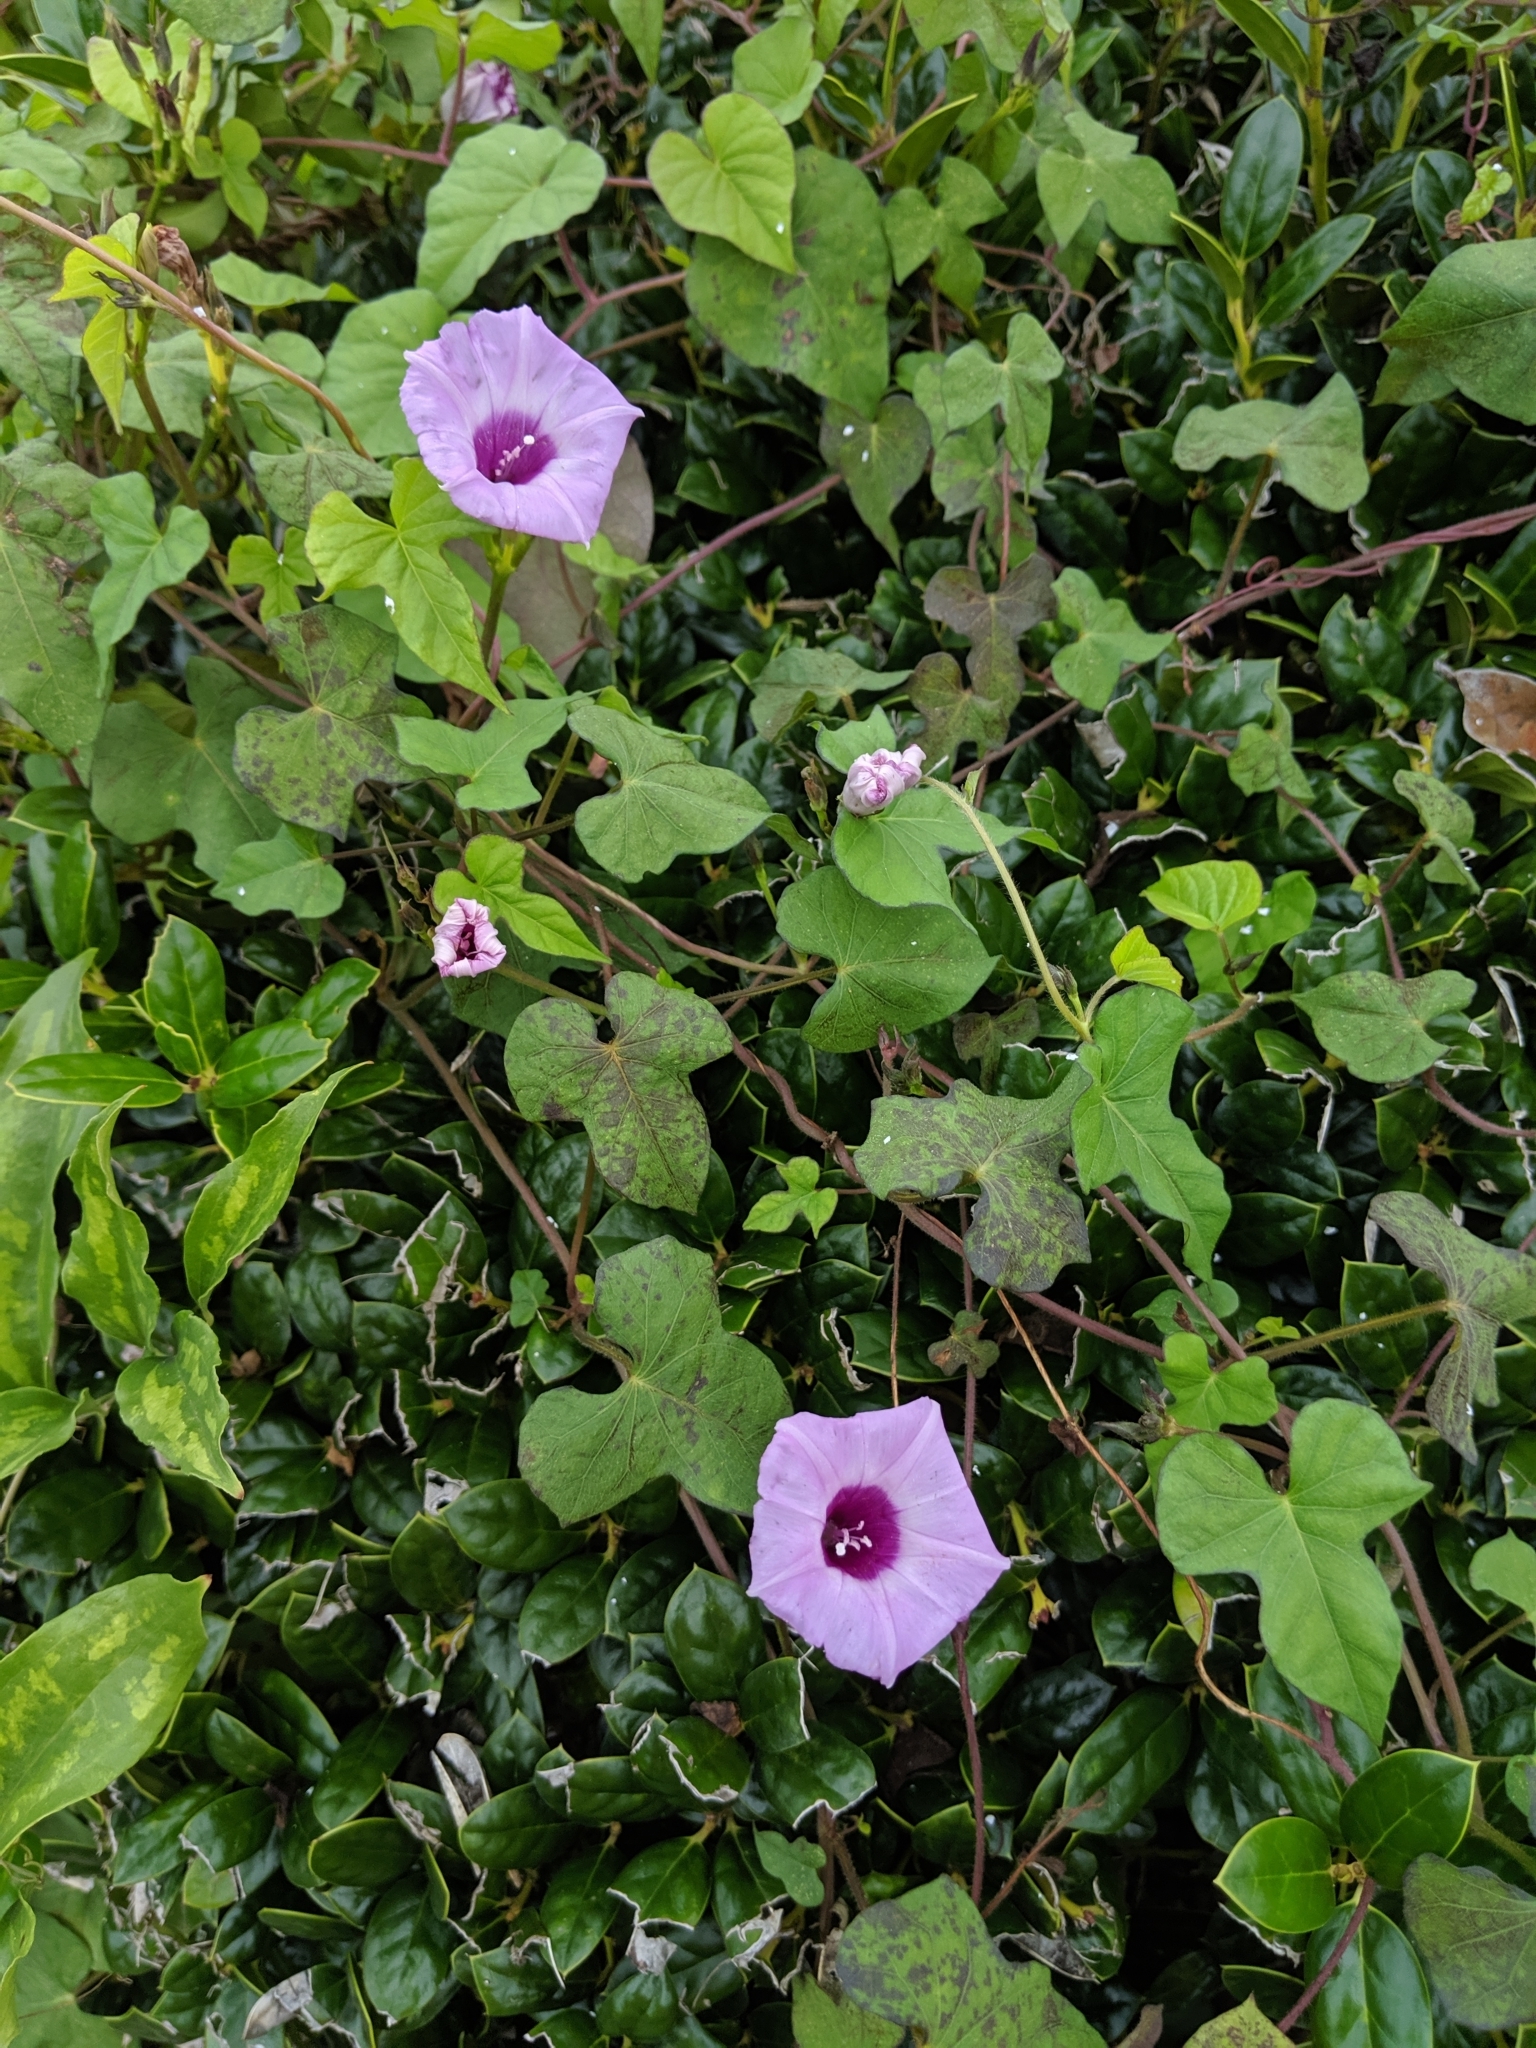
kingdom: Plantae
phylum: Tracheophyta
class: Magnoliopsida
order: Solanales
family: Convolvulaceae
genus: Ipomoea
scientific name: Ipomoea cordatotriloba
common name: Cotton morning glory
